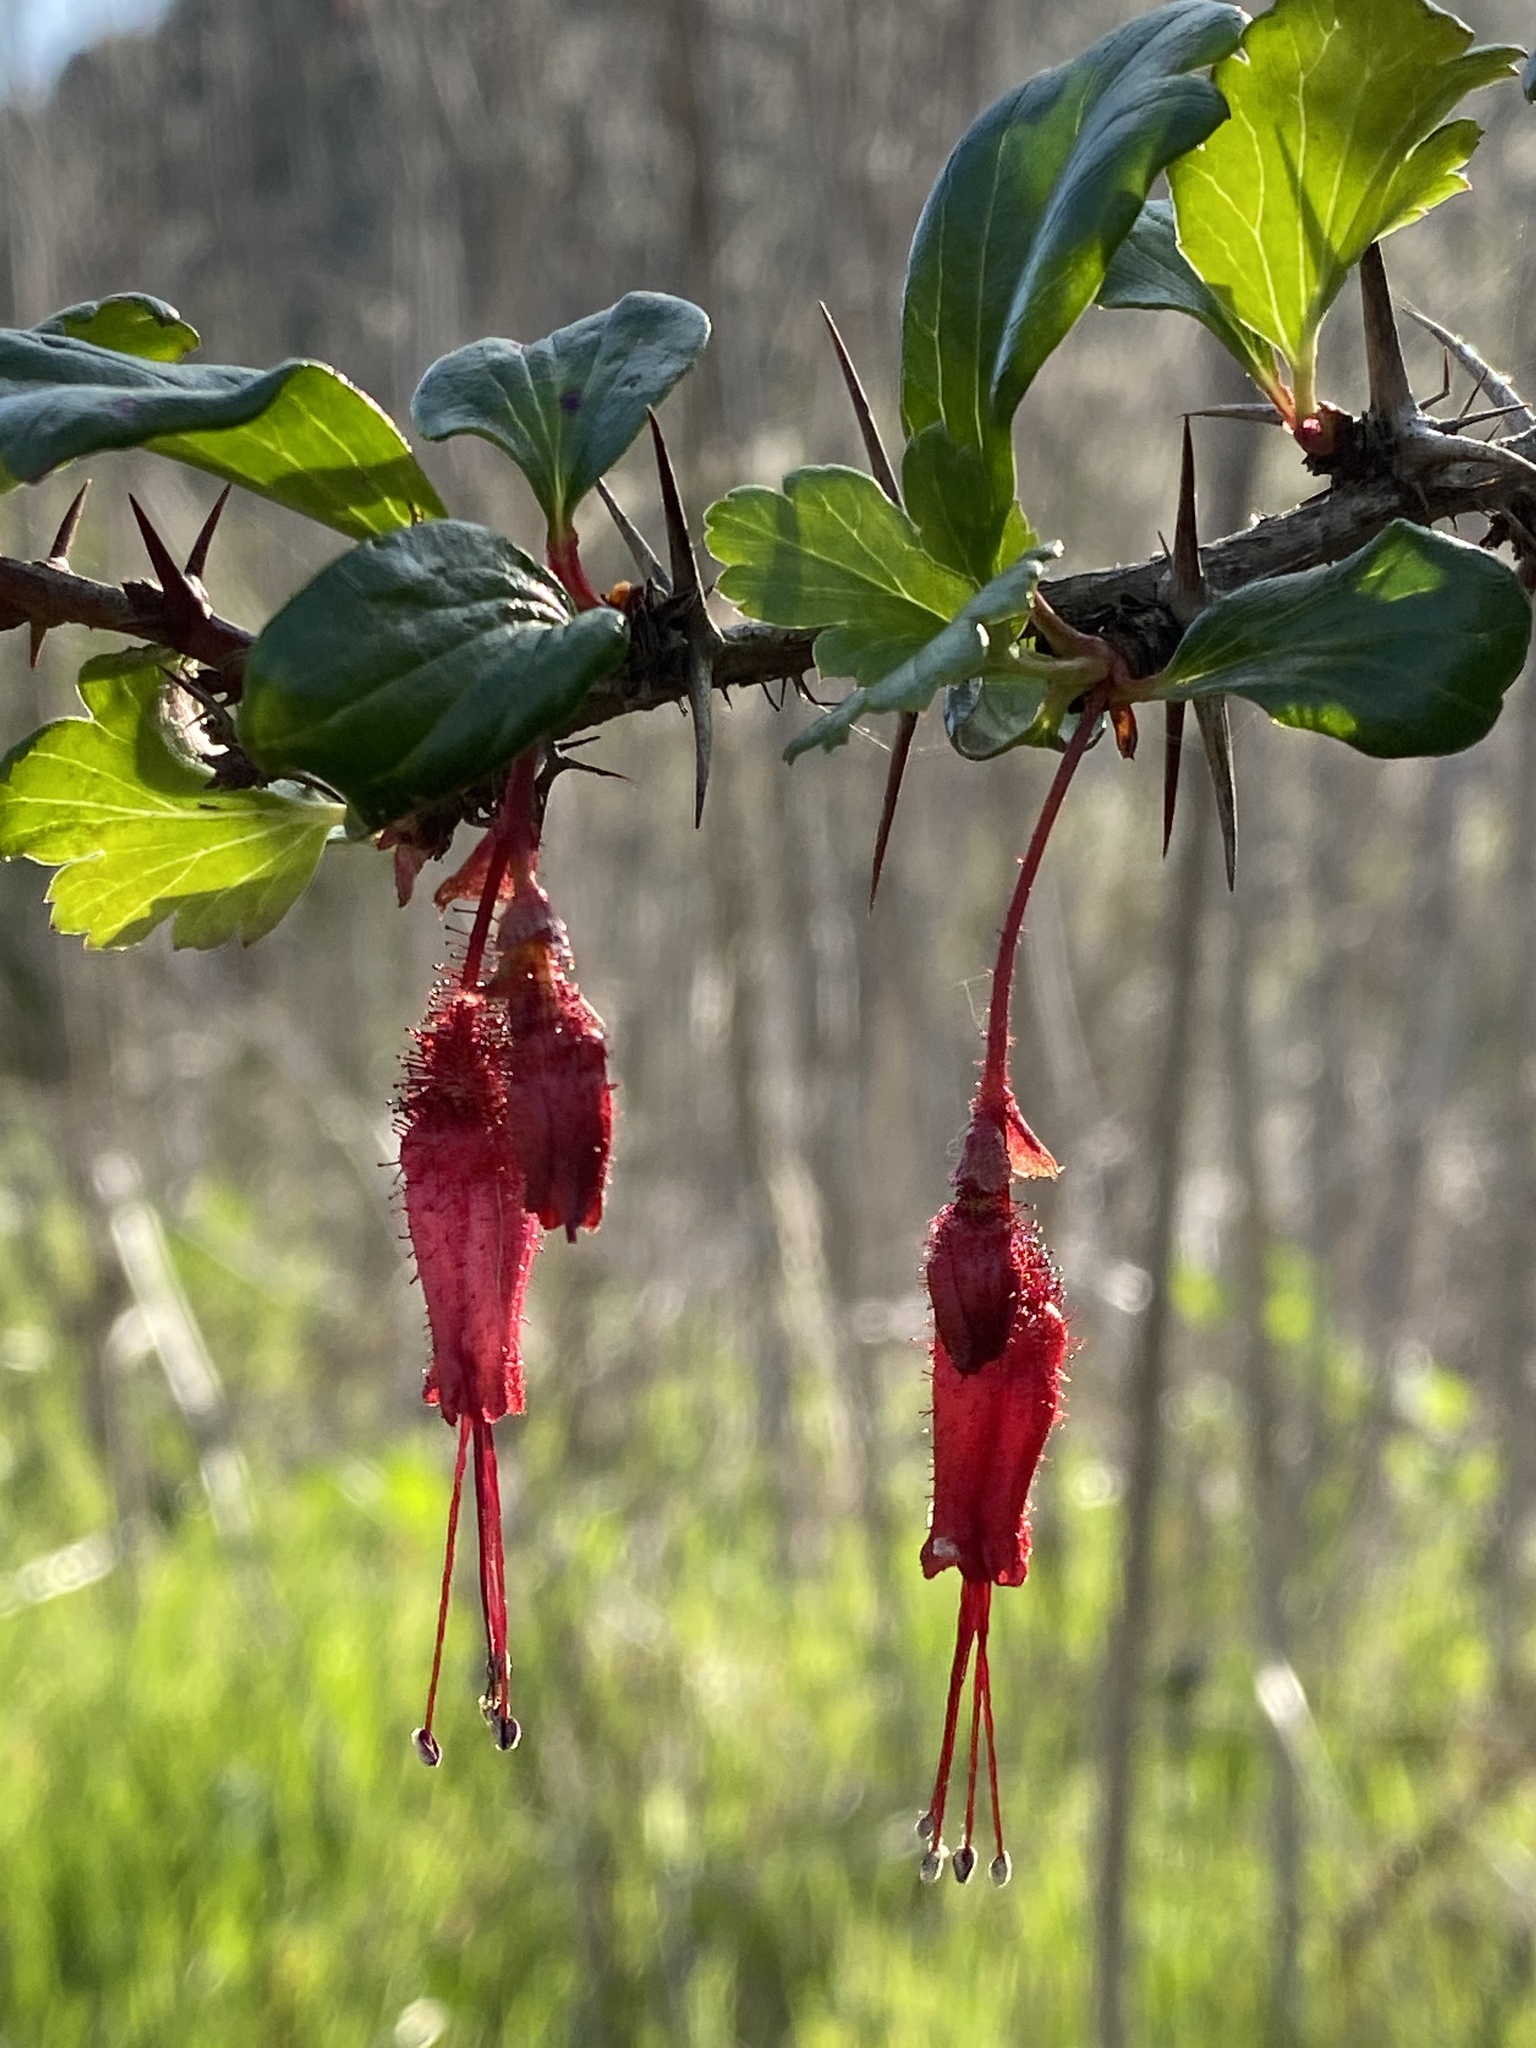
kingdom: Plantae
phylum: Tracheophyta
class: Magnoliopsida
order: Saxifragales
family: Grossulariaceae
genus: Ribes
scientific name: Ribes speciosum
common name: Fuchsia-flower gooseberry
